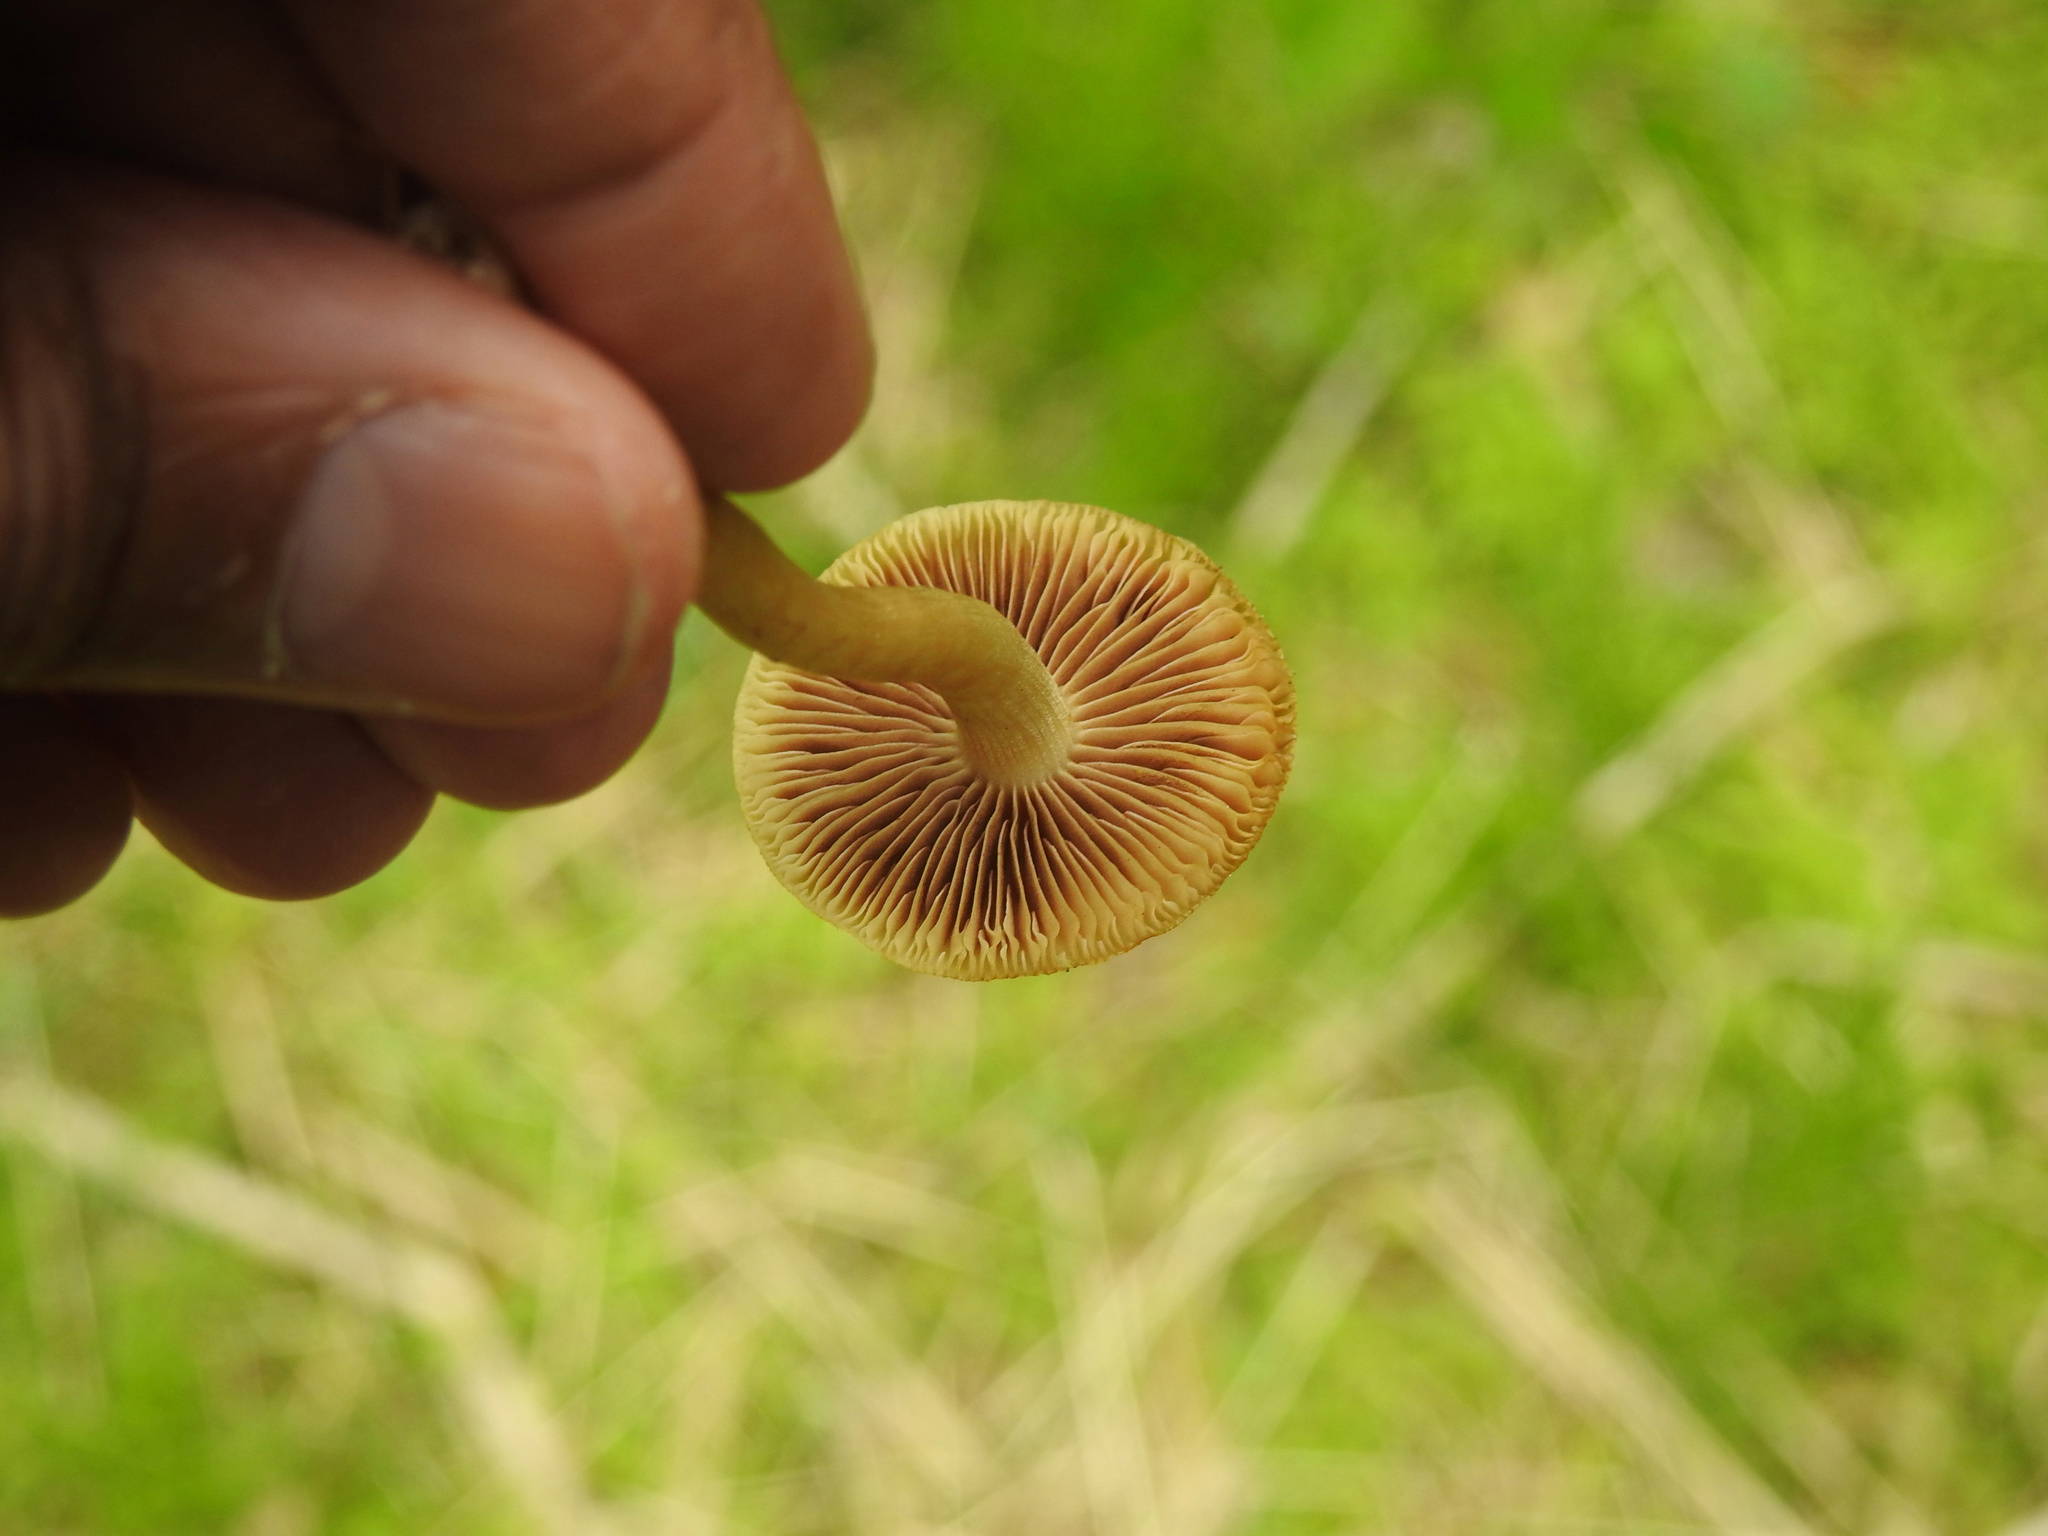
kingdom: Fungi
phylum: Basidiomycota
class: Agaricomycetes
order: Agaricales
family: Strophariaceae
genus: Agrocybe
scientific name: Agrocybe pediades
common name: Common fieldcap
